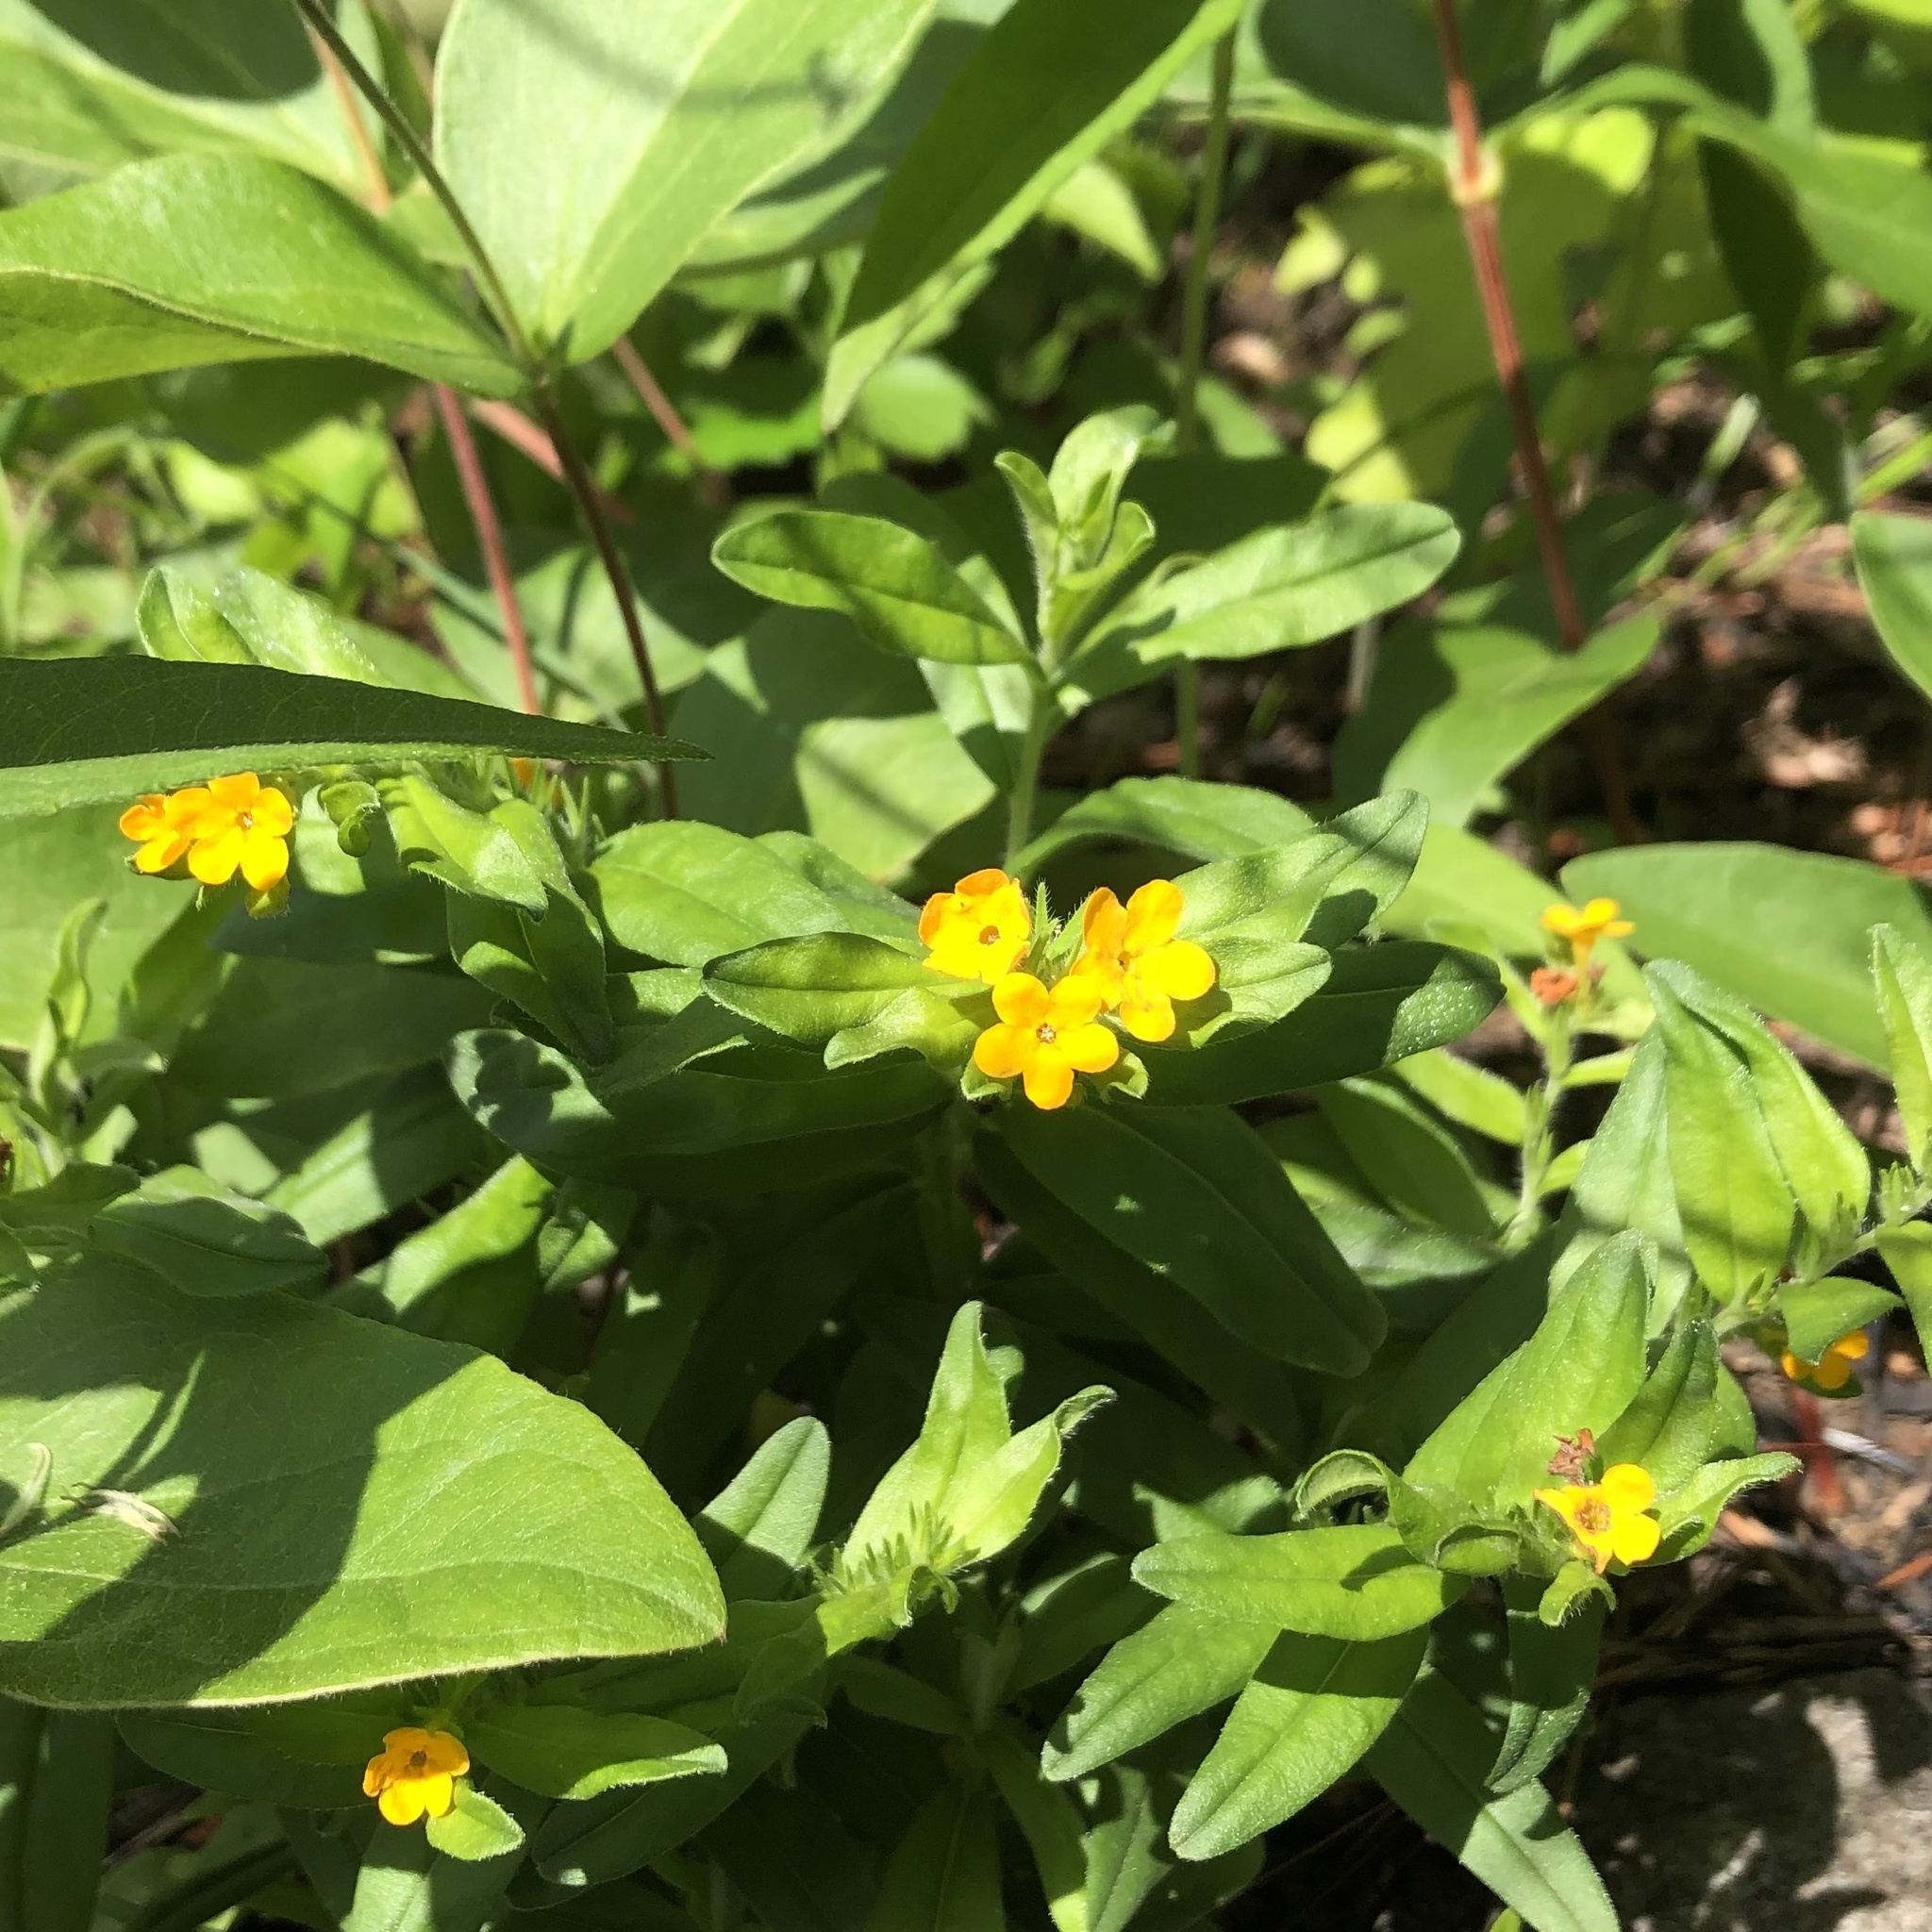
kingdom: Plantae
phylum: Tracheophyta
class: Magnoliopsida
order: Boraginales
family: Boraginaceae
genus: Lithospermum
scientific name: Lithospermum canescens
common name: Hoary puccoon
